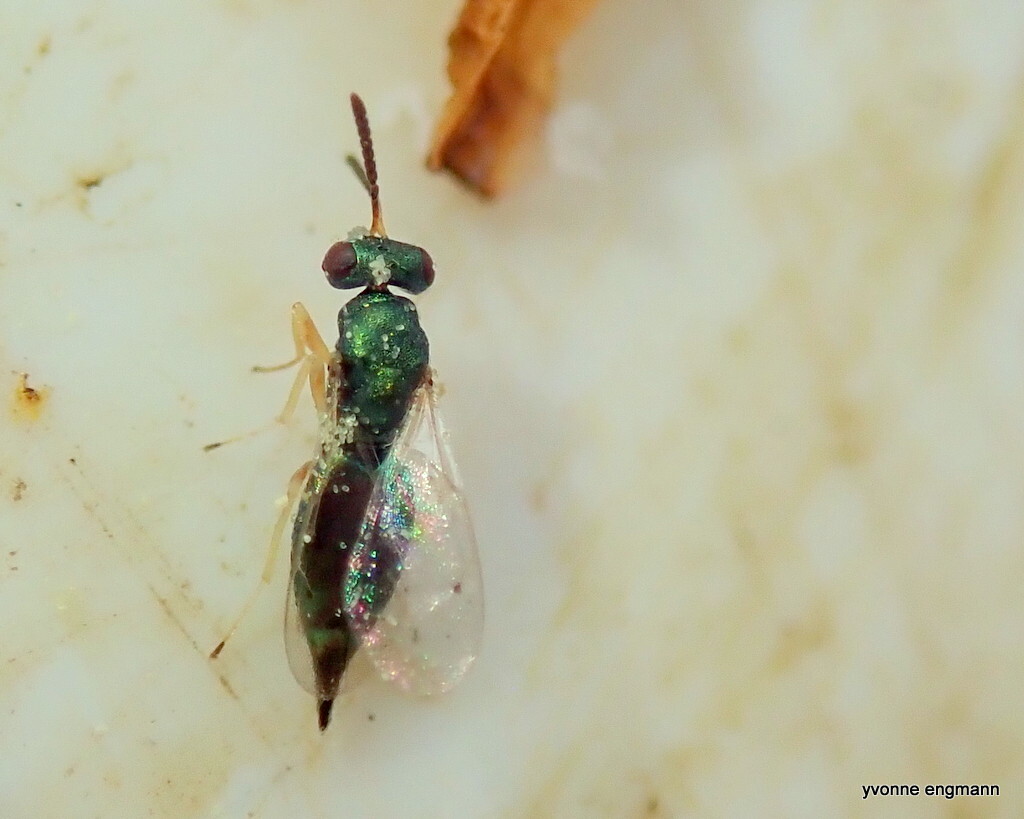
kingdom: Animalia
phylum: Arthropoda
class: Insecta
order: Hymenoptera
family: Pteromalini
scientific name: Pteromalini
